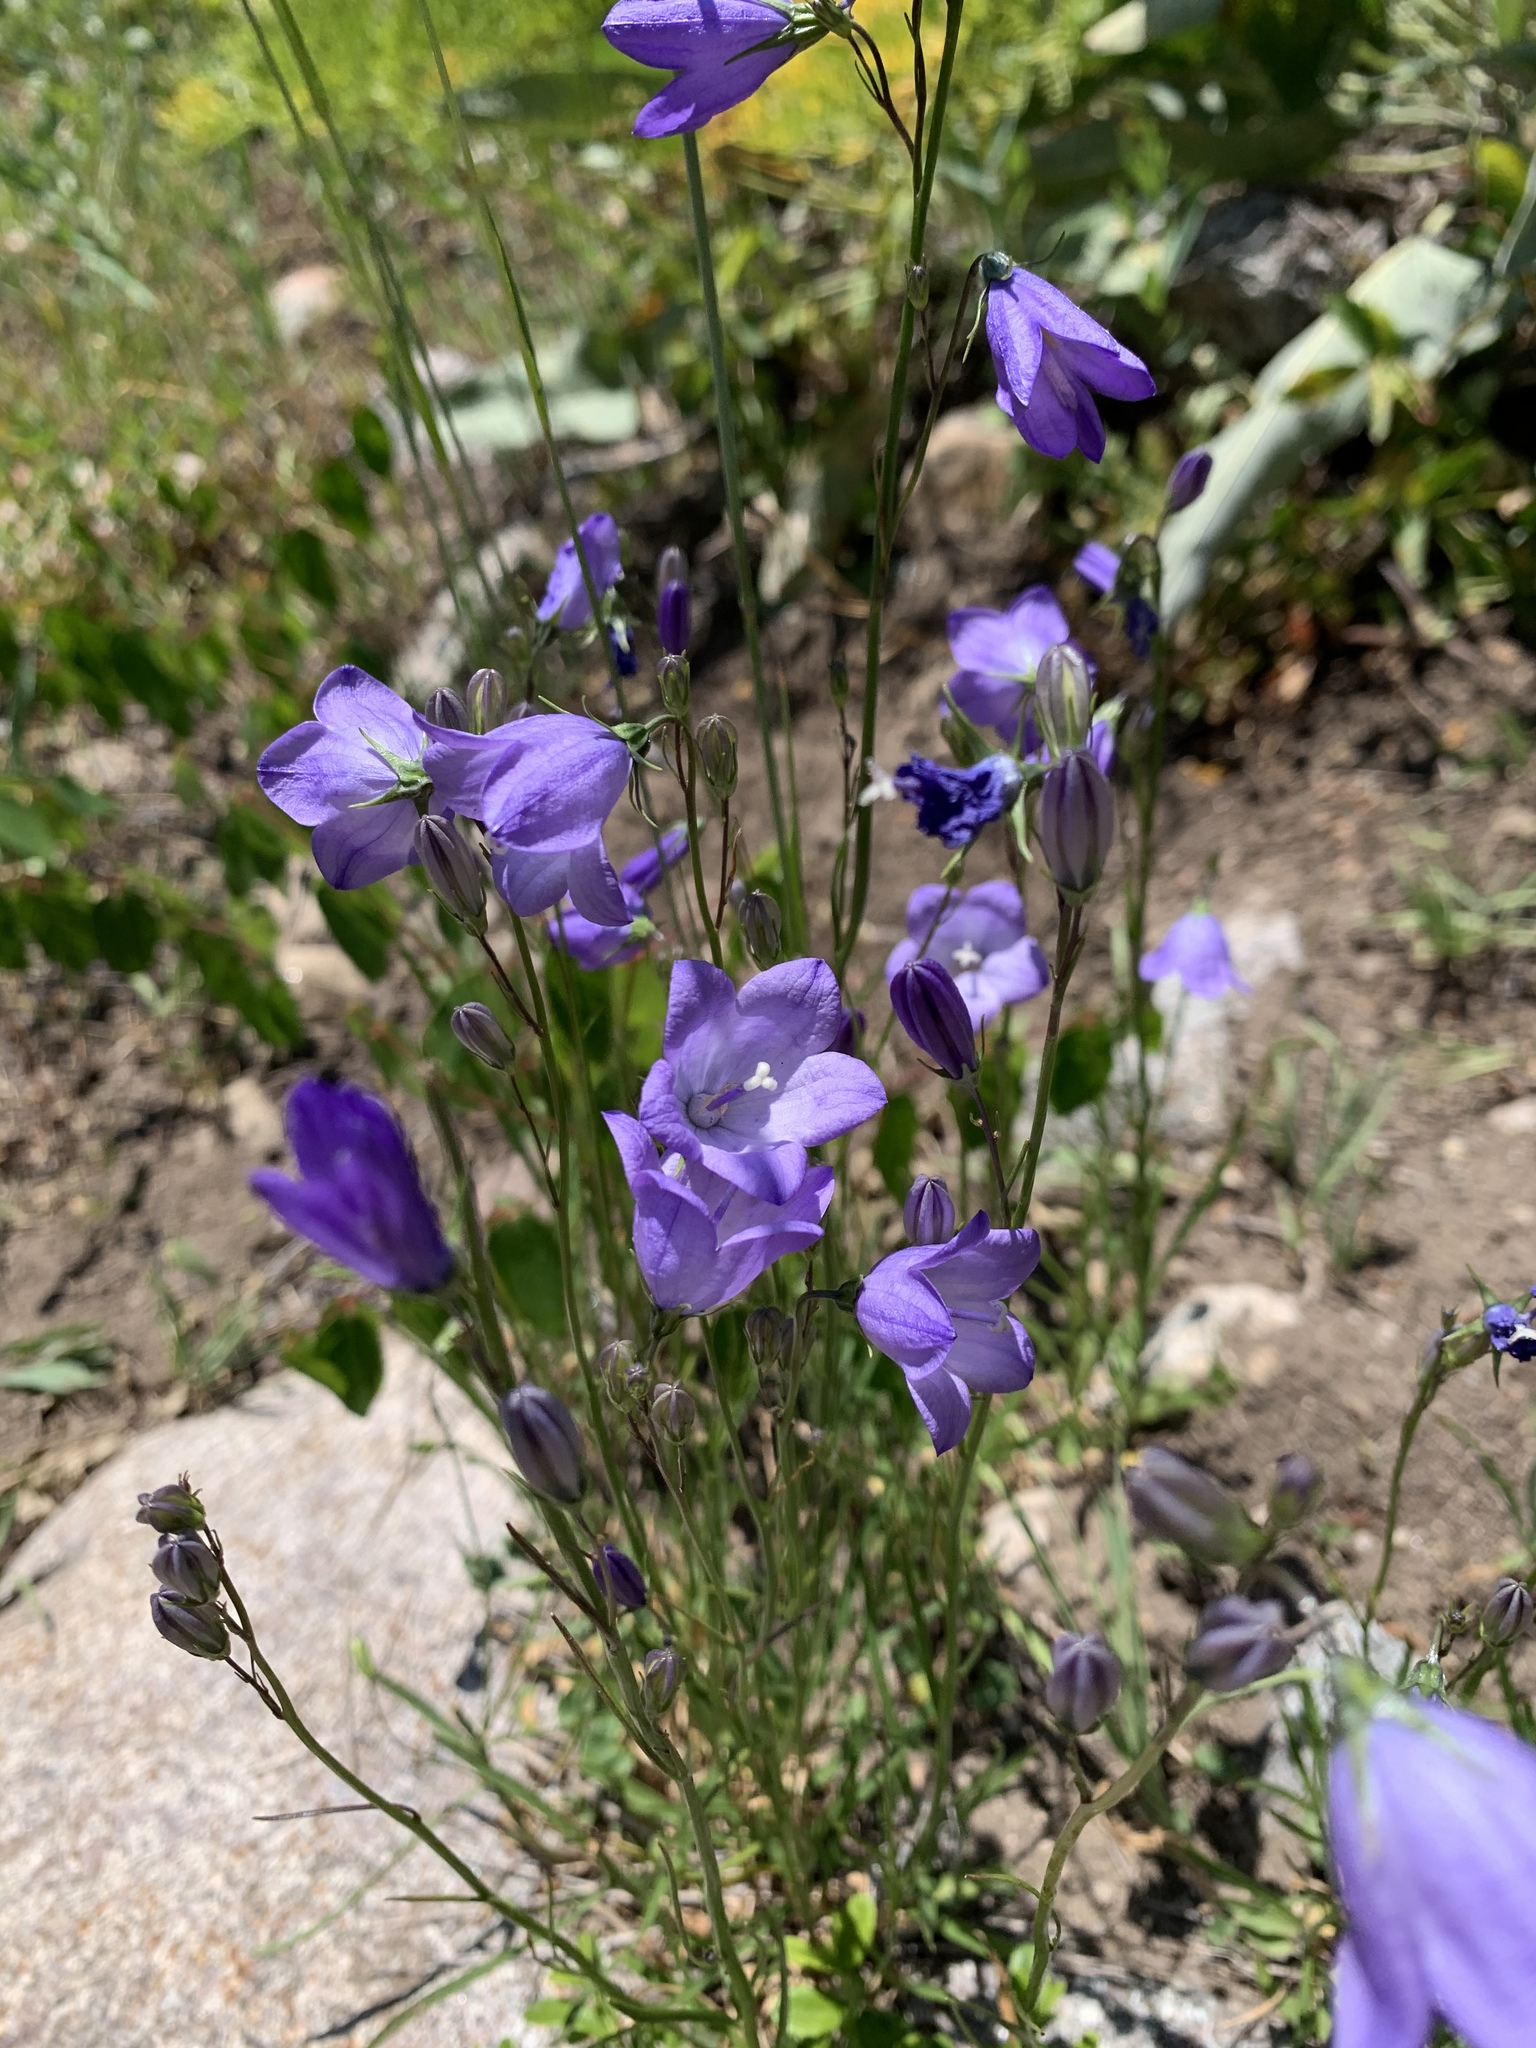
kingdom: Plantae
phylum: Tracheophyta
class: Magnoliopsida
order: Asterales
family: Campanulaceae
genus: Campanula
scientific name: Campanula
